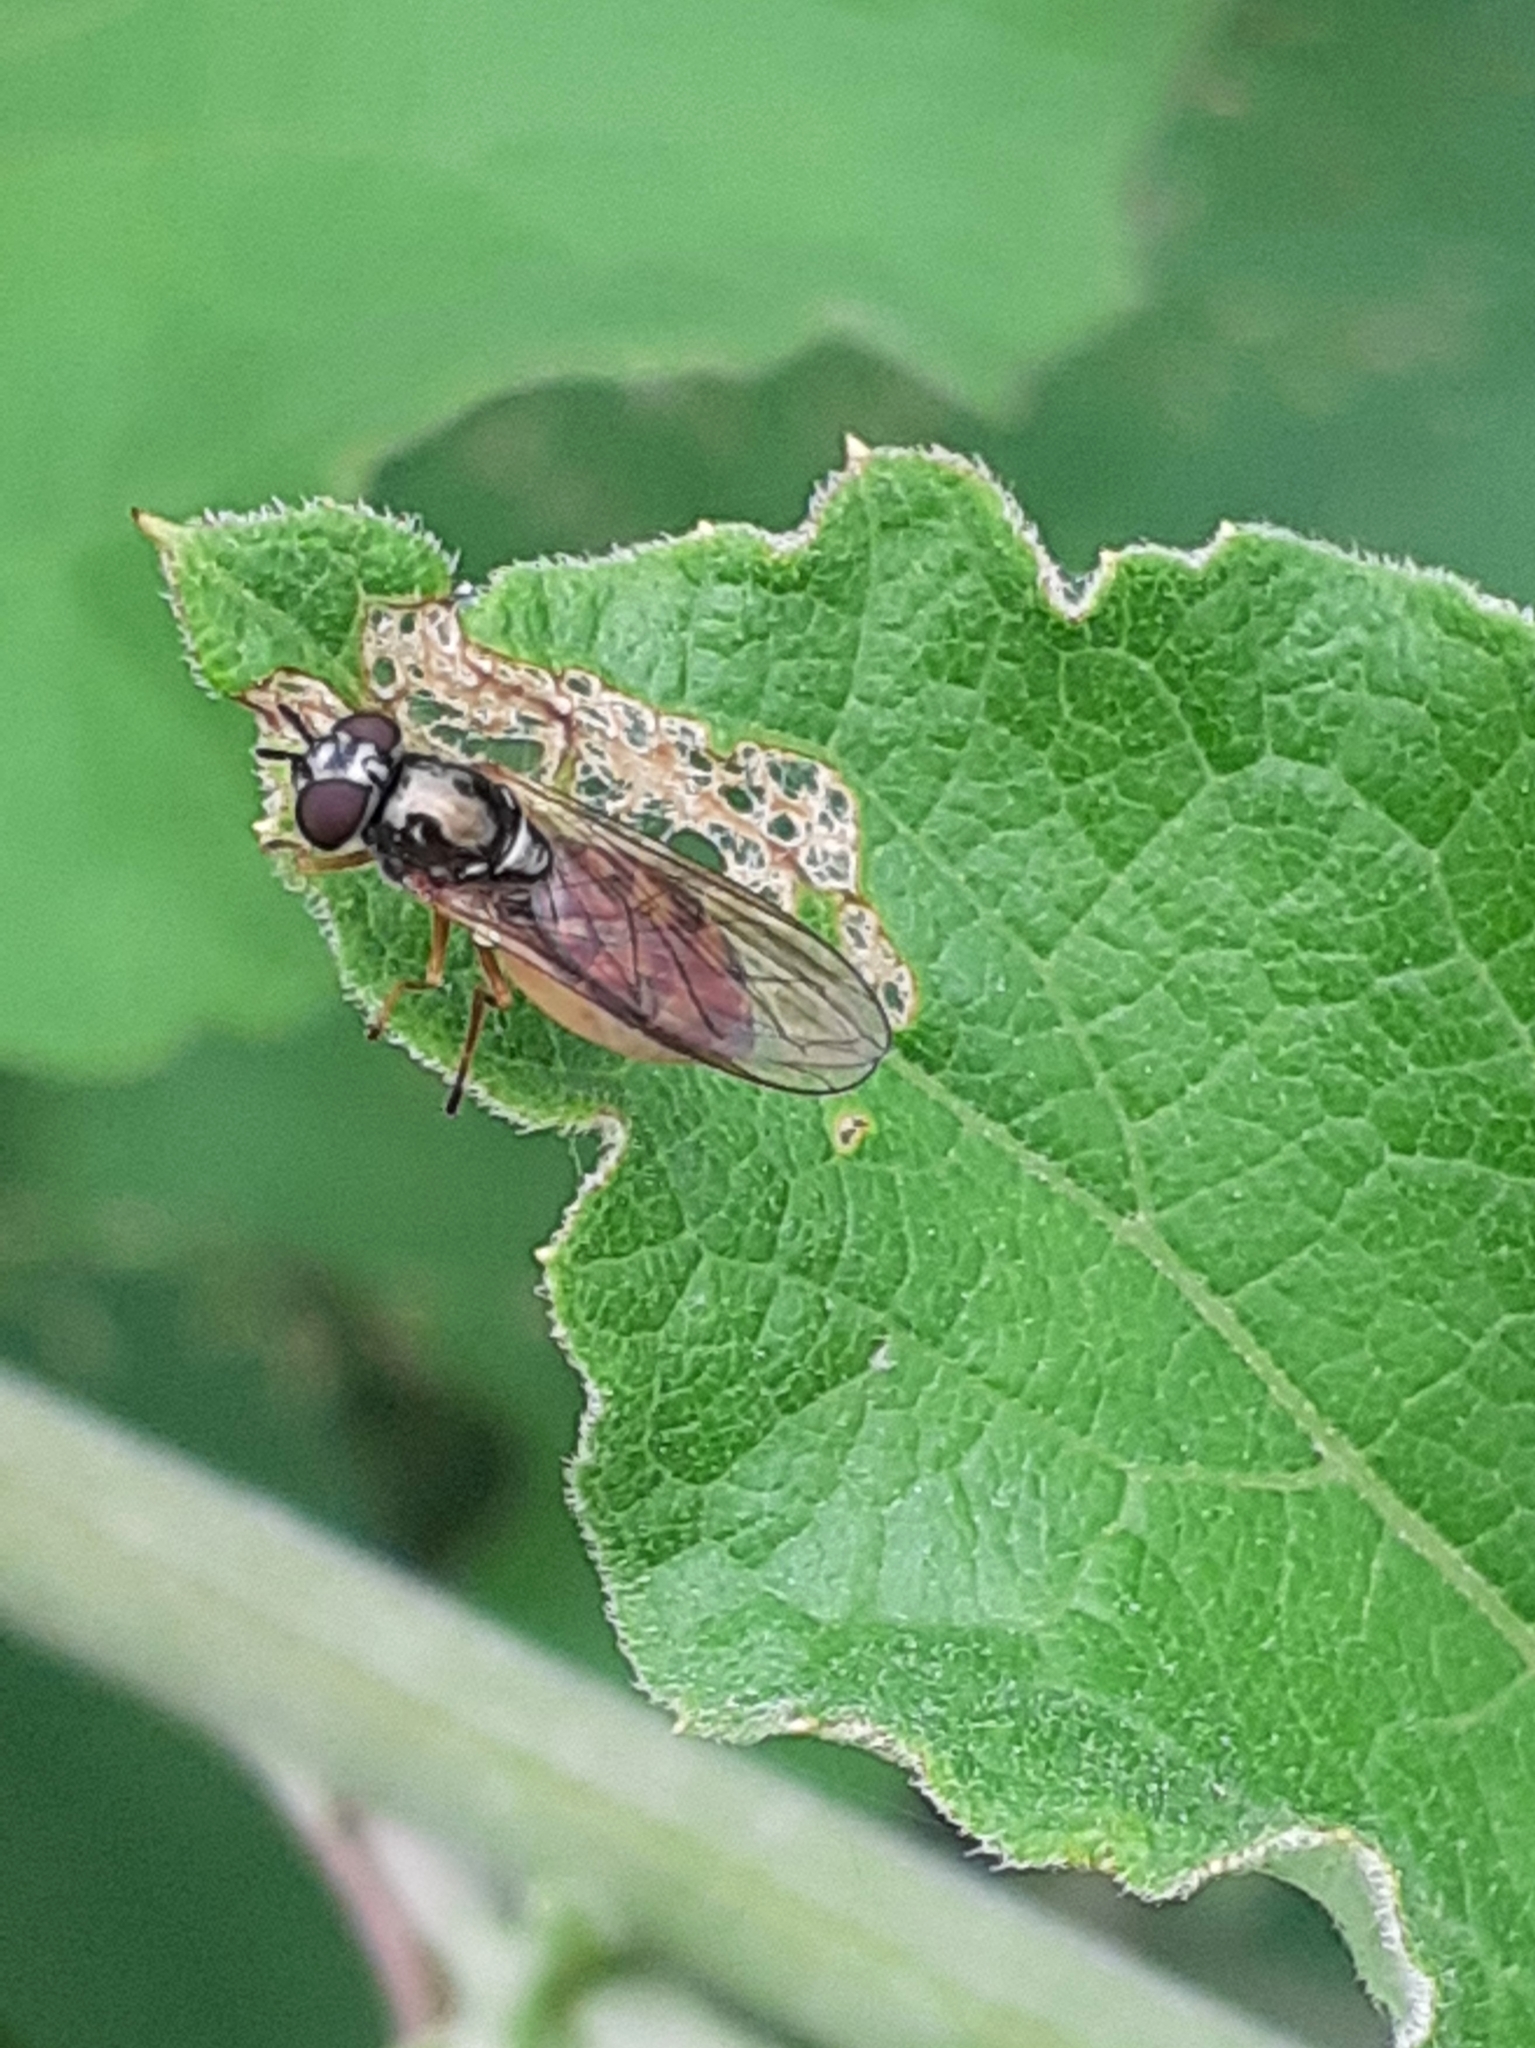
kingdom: Animalia
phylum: Arthropoda
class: Insecta
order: Diptera
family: Syrphidae
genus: Melanostoma
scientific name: Melanostoma mellina
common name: Hover fly
